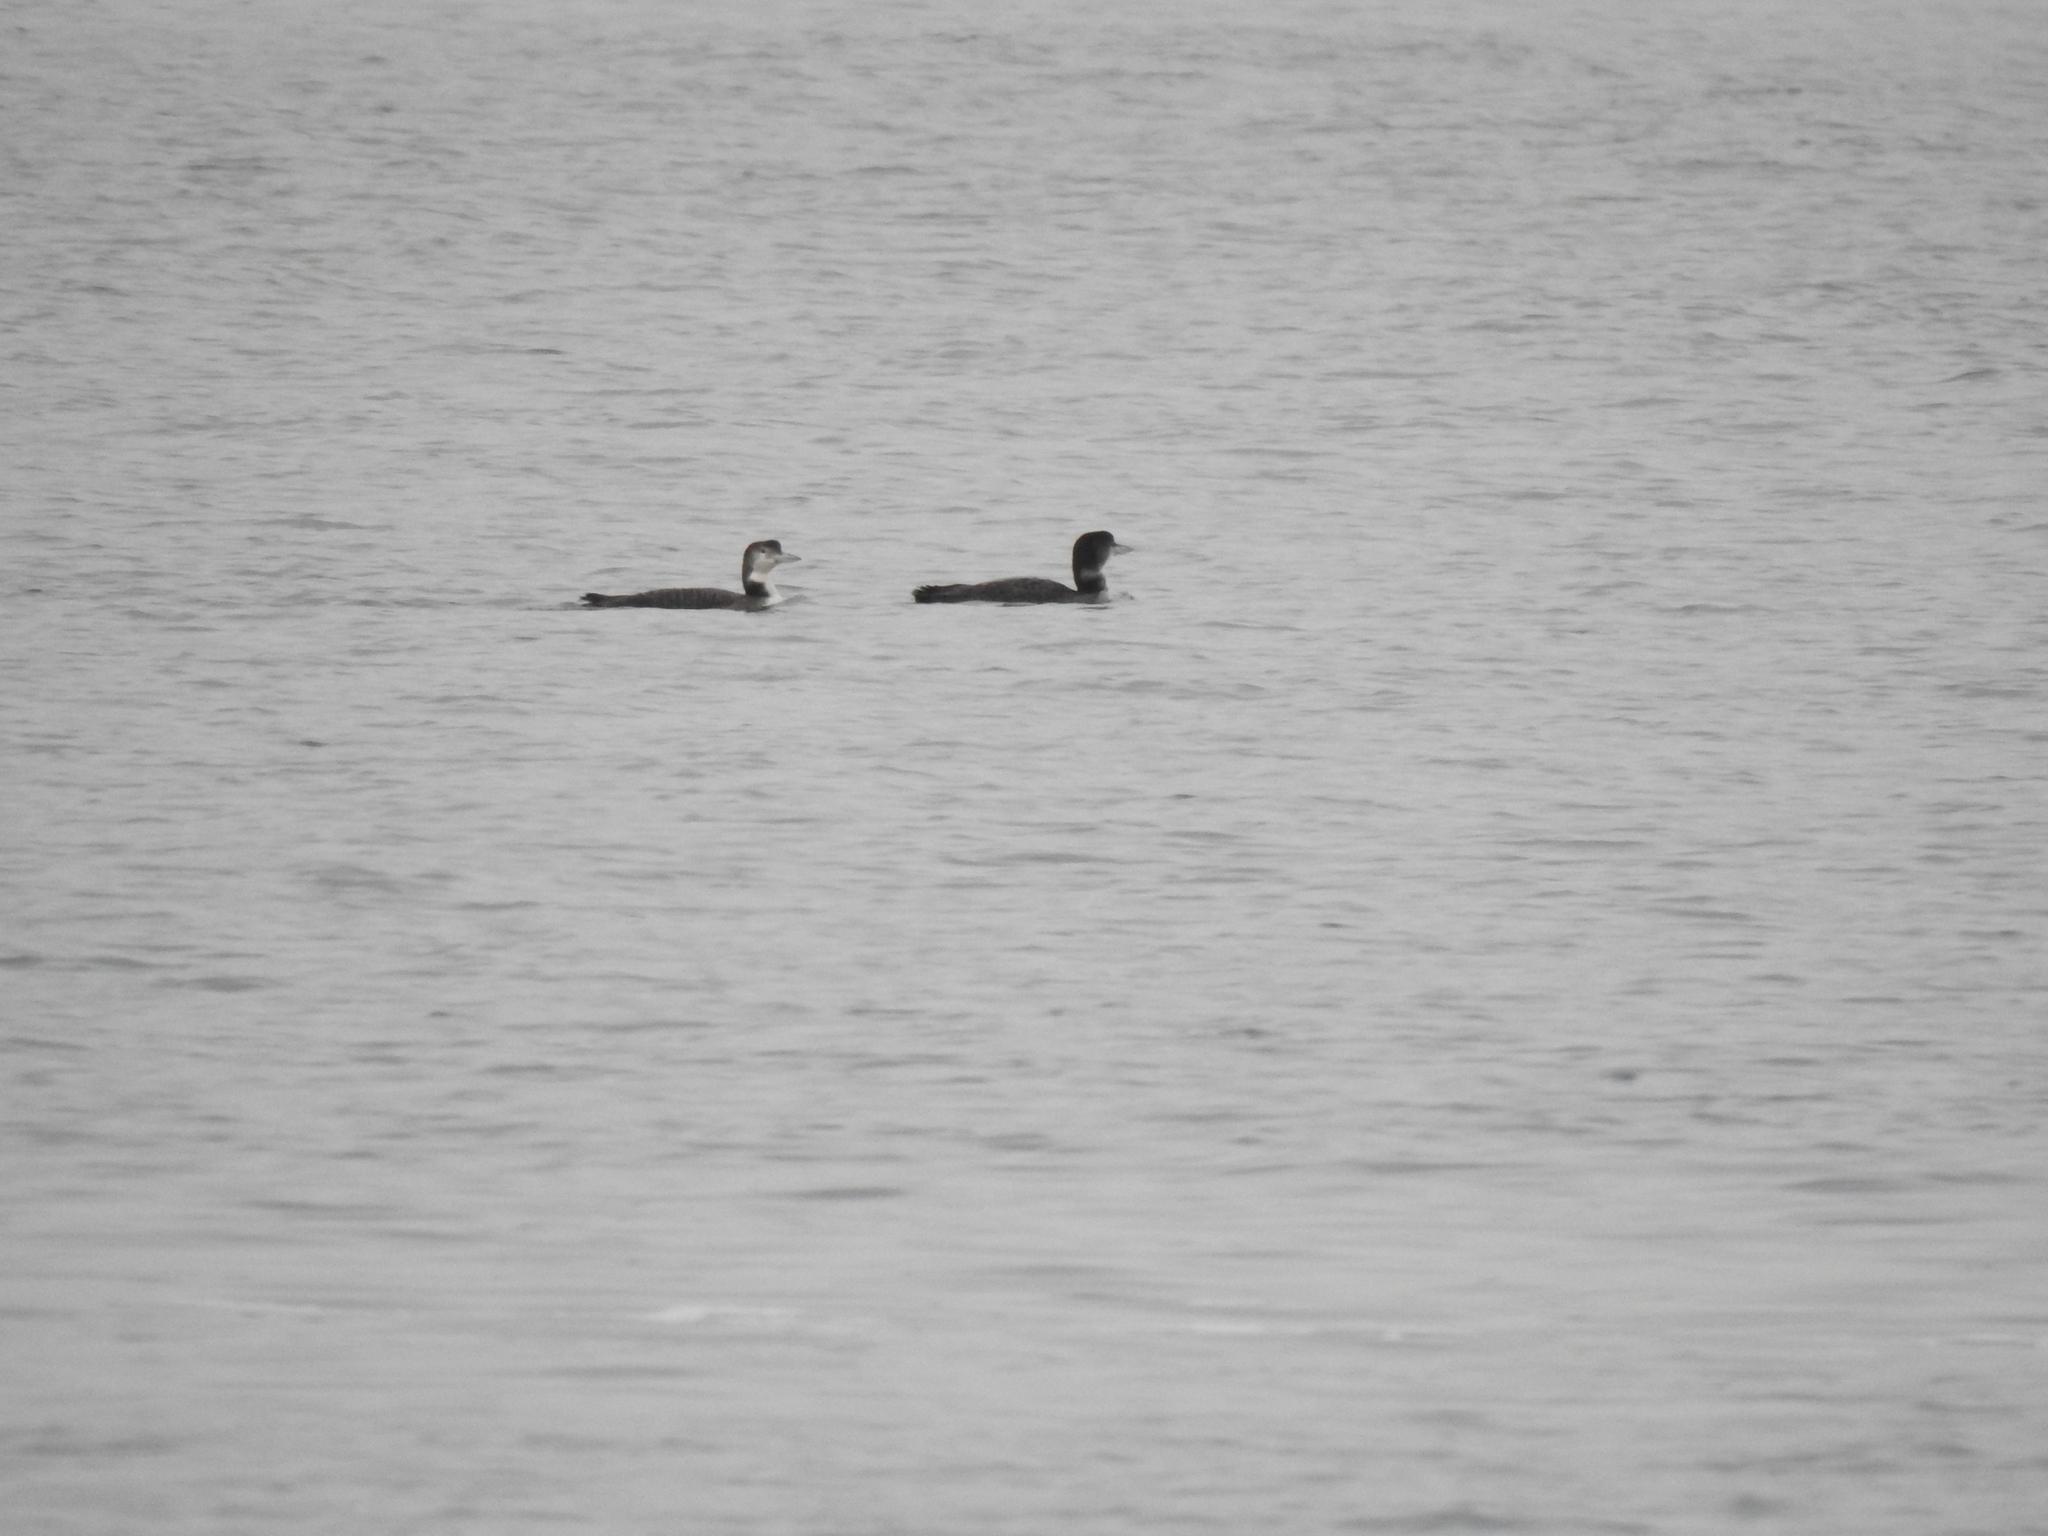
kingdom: Animalia
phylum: Chordata
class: Aves
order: Gaviiformes
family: Gaviidae
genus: Gavia
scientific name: Gavia immer
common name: Common loon
